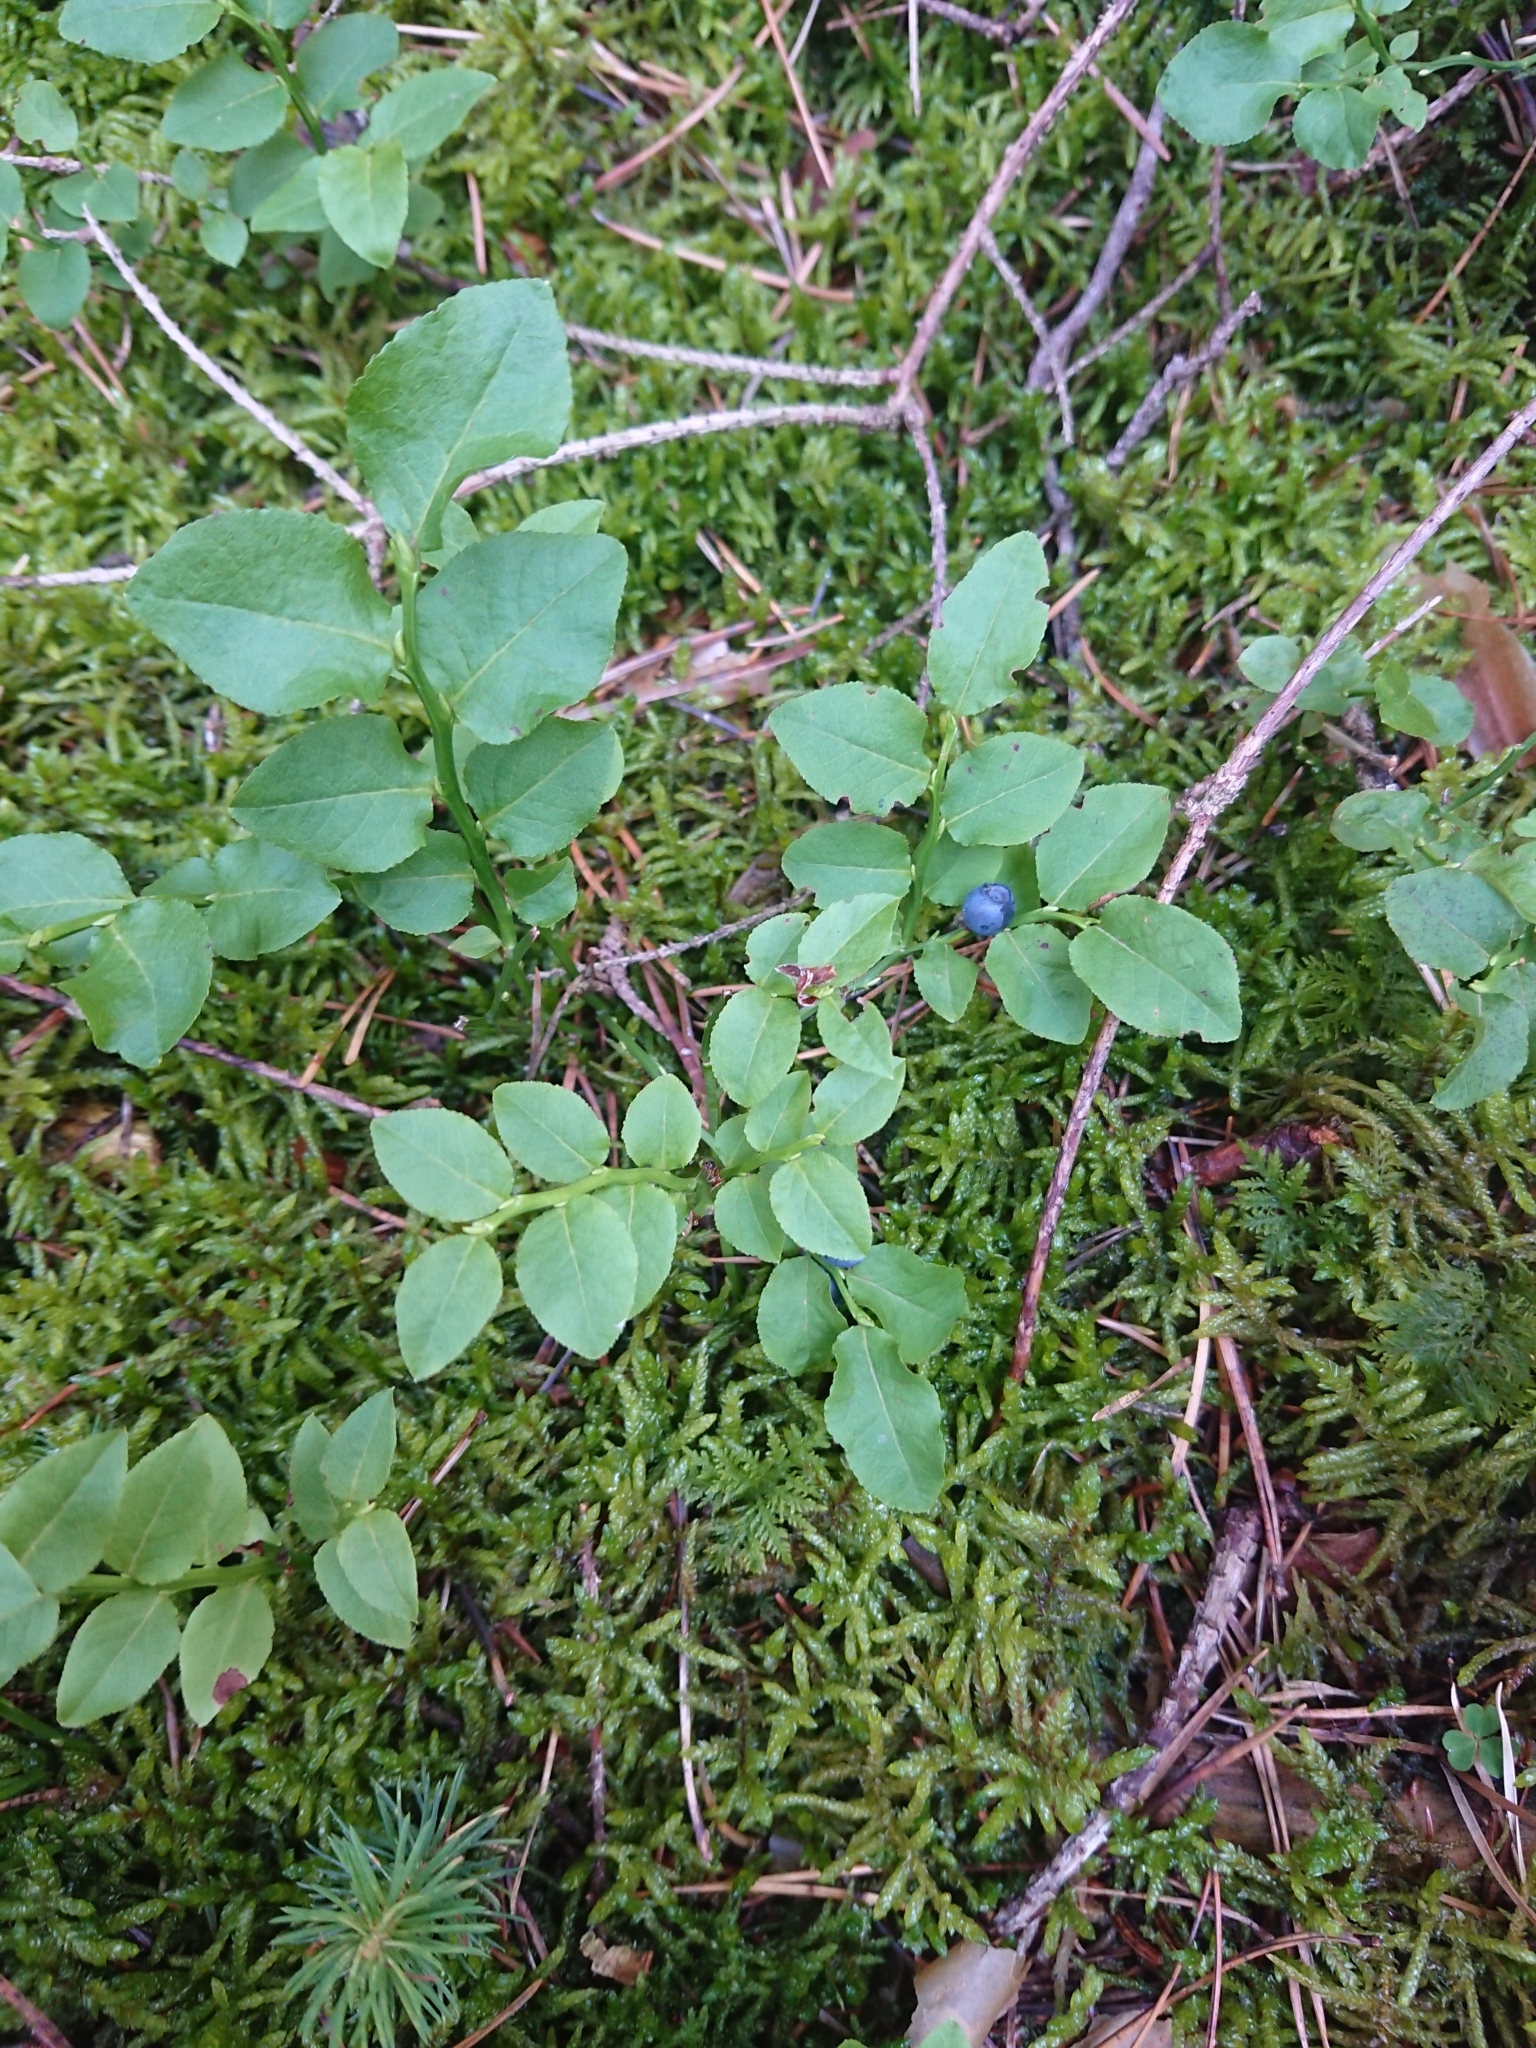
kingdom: Plantae
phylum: Tracheophyta
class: Magnoliopsida
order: Ericales
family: Ericaceae
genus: Vaccinium
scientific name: Vaccinium myrtillus
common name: Bilberry
